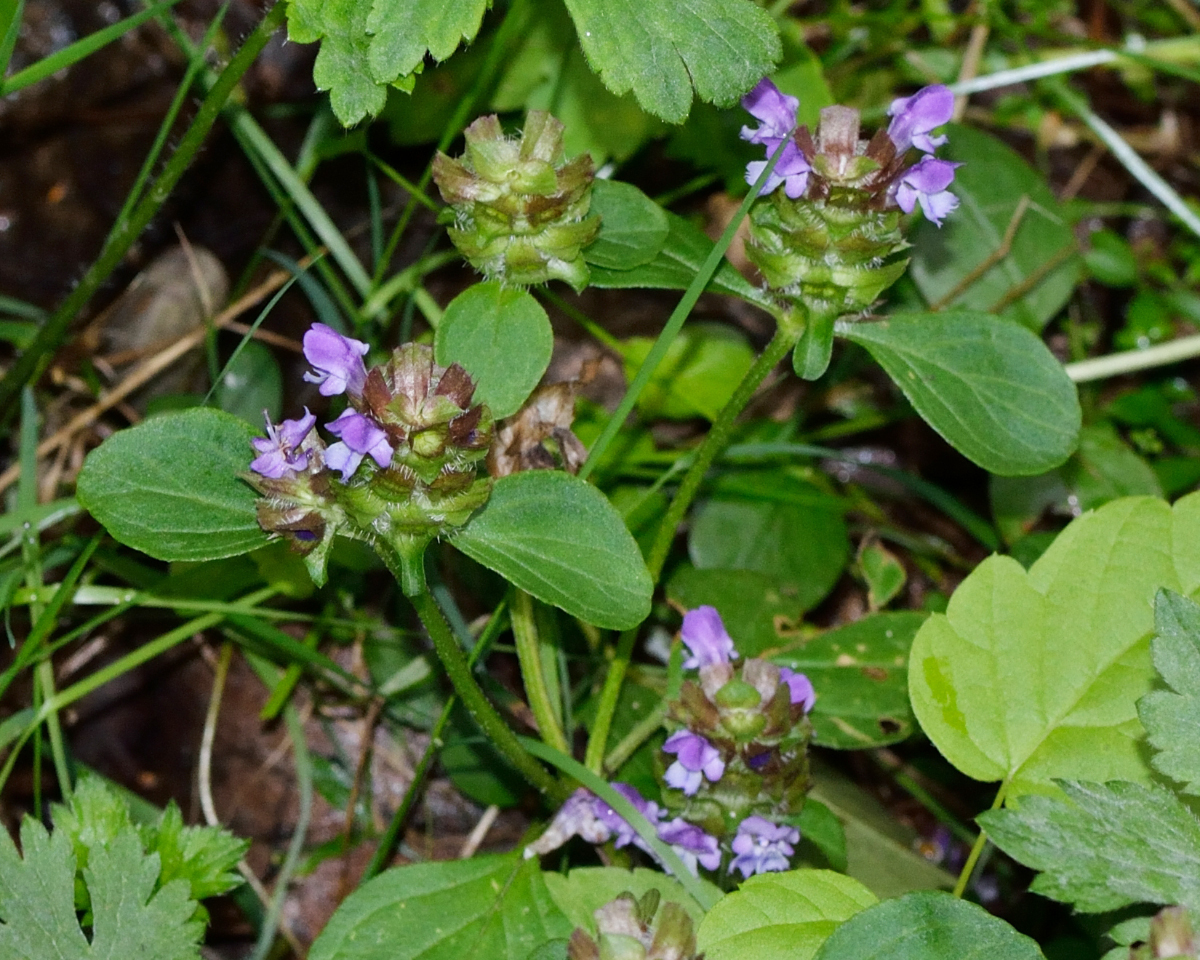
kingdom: Plantae
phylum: Tracheophyta
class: Magnoliopsida
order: Lamiales
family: Lamiaceae
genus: Prunella
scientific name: Prunella vulgaris
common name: Heal-all
